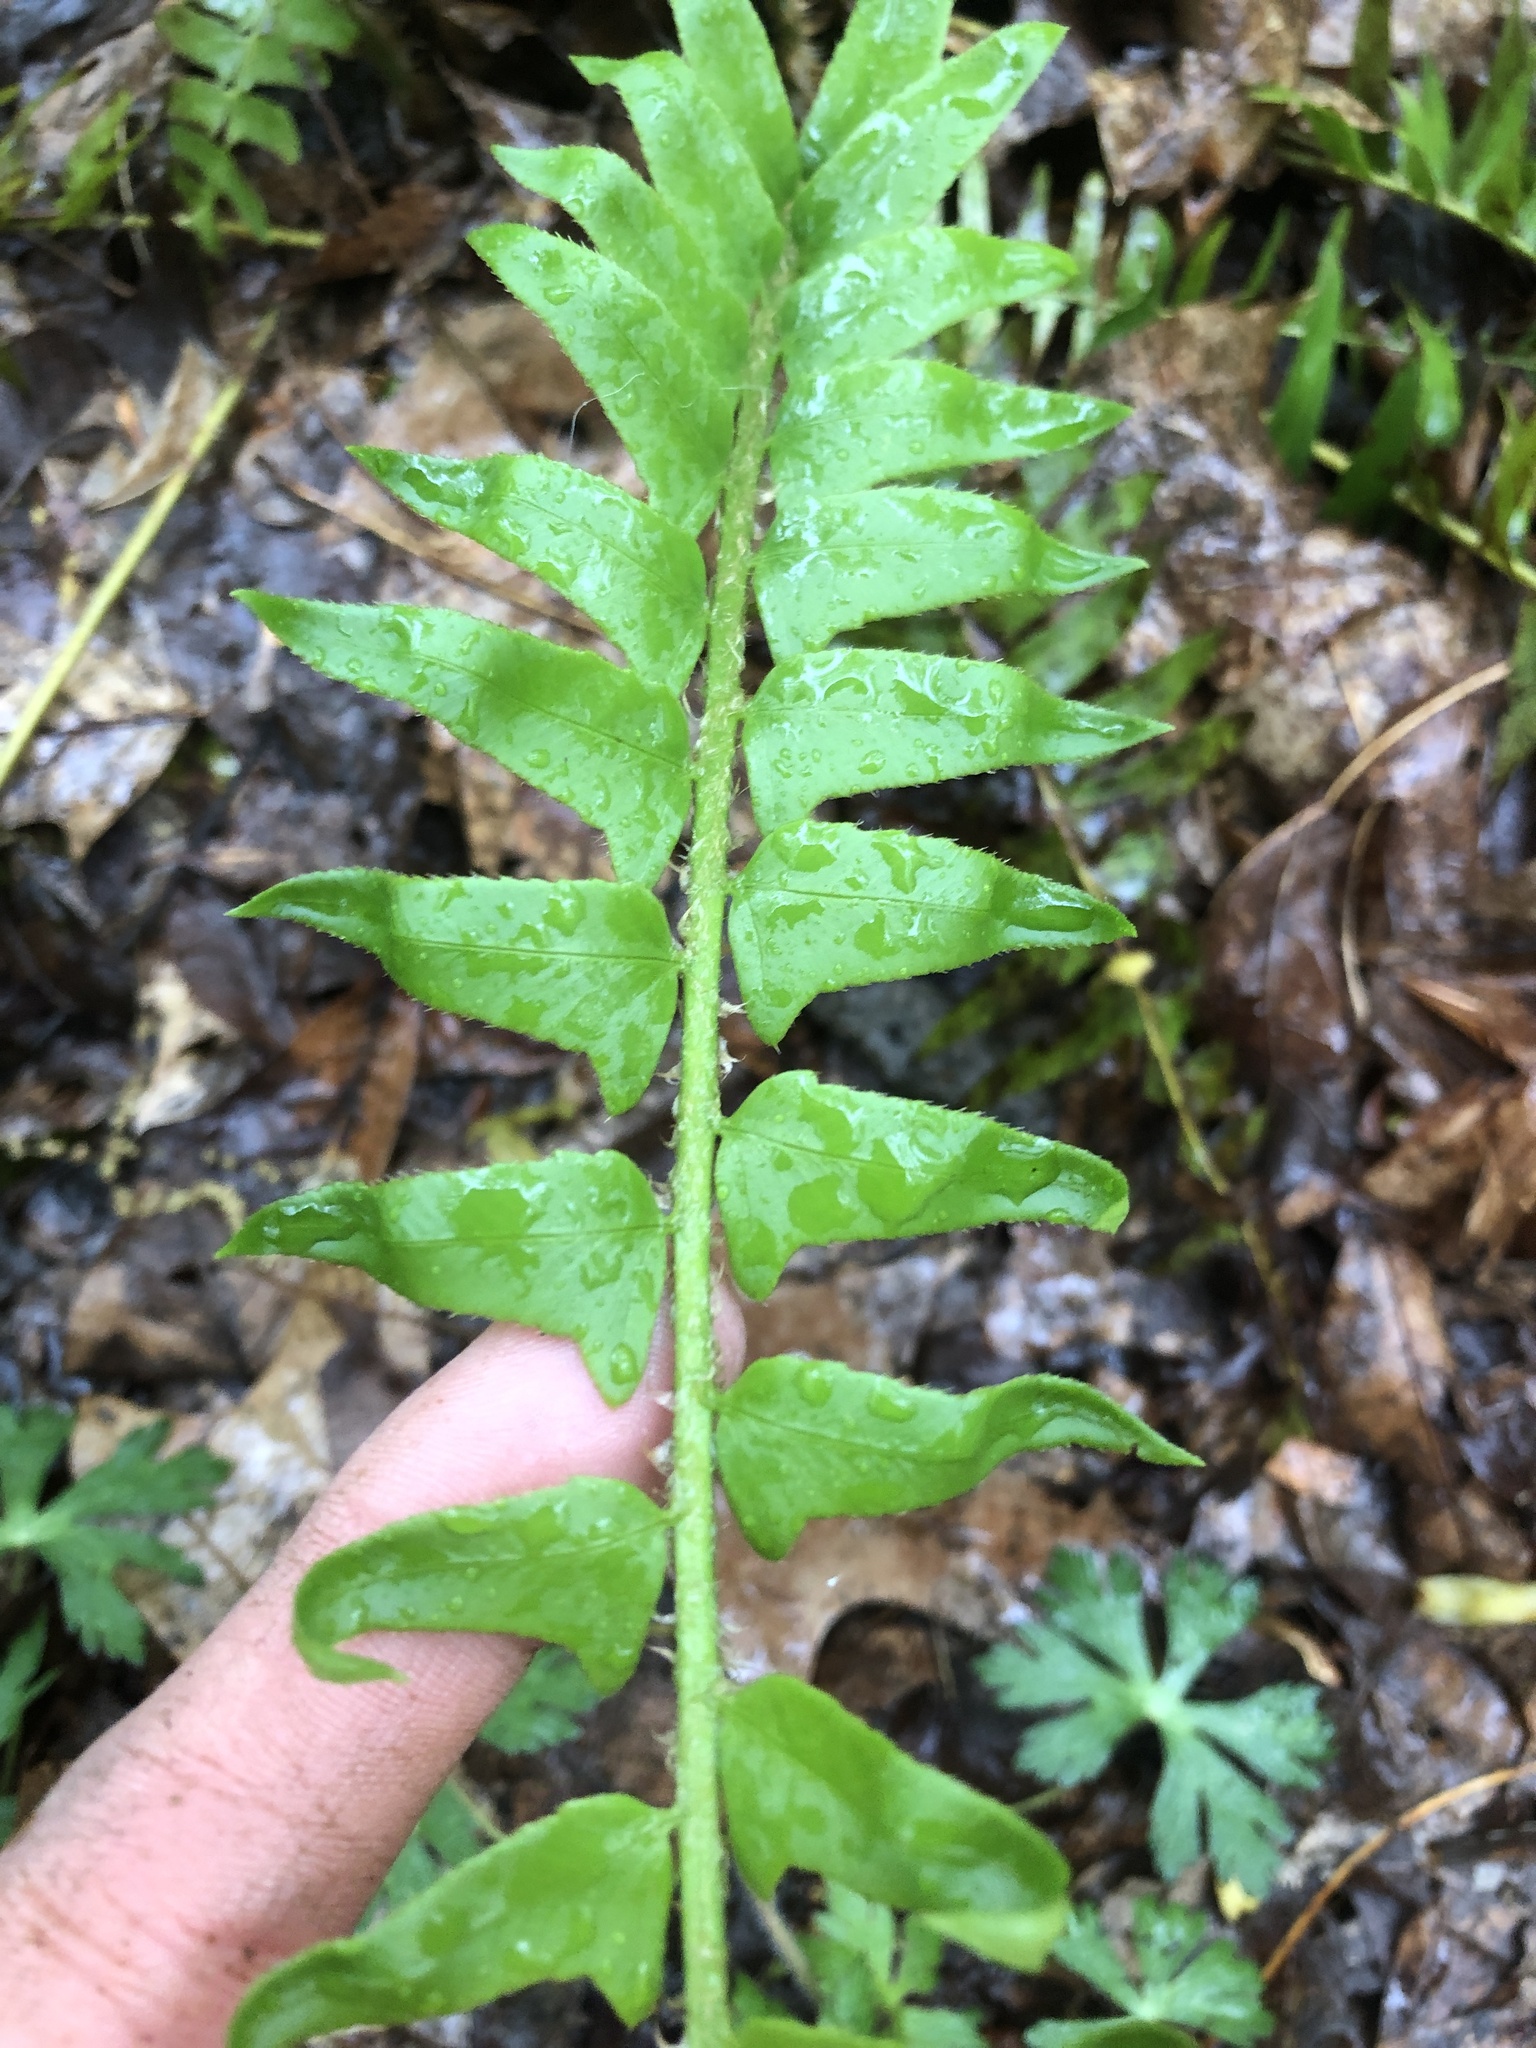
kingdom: Plantae
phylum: Tracheophyta
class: Polypodiopsida
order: Polypodiales
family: Dryopteridaceae
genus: Polystichum
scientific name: Polystichum acrostichoides
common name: Christmas fern
